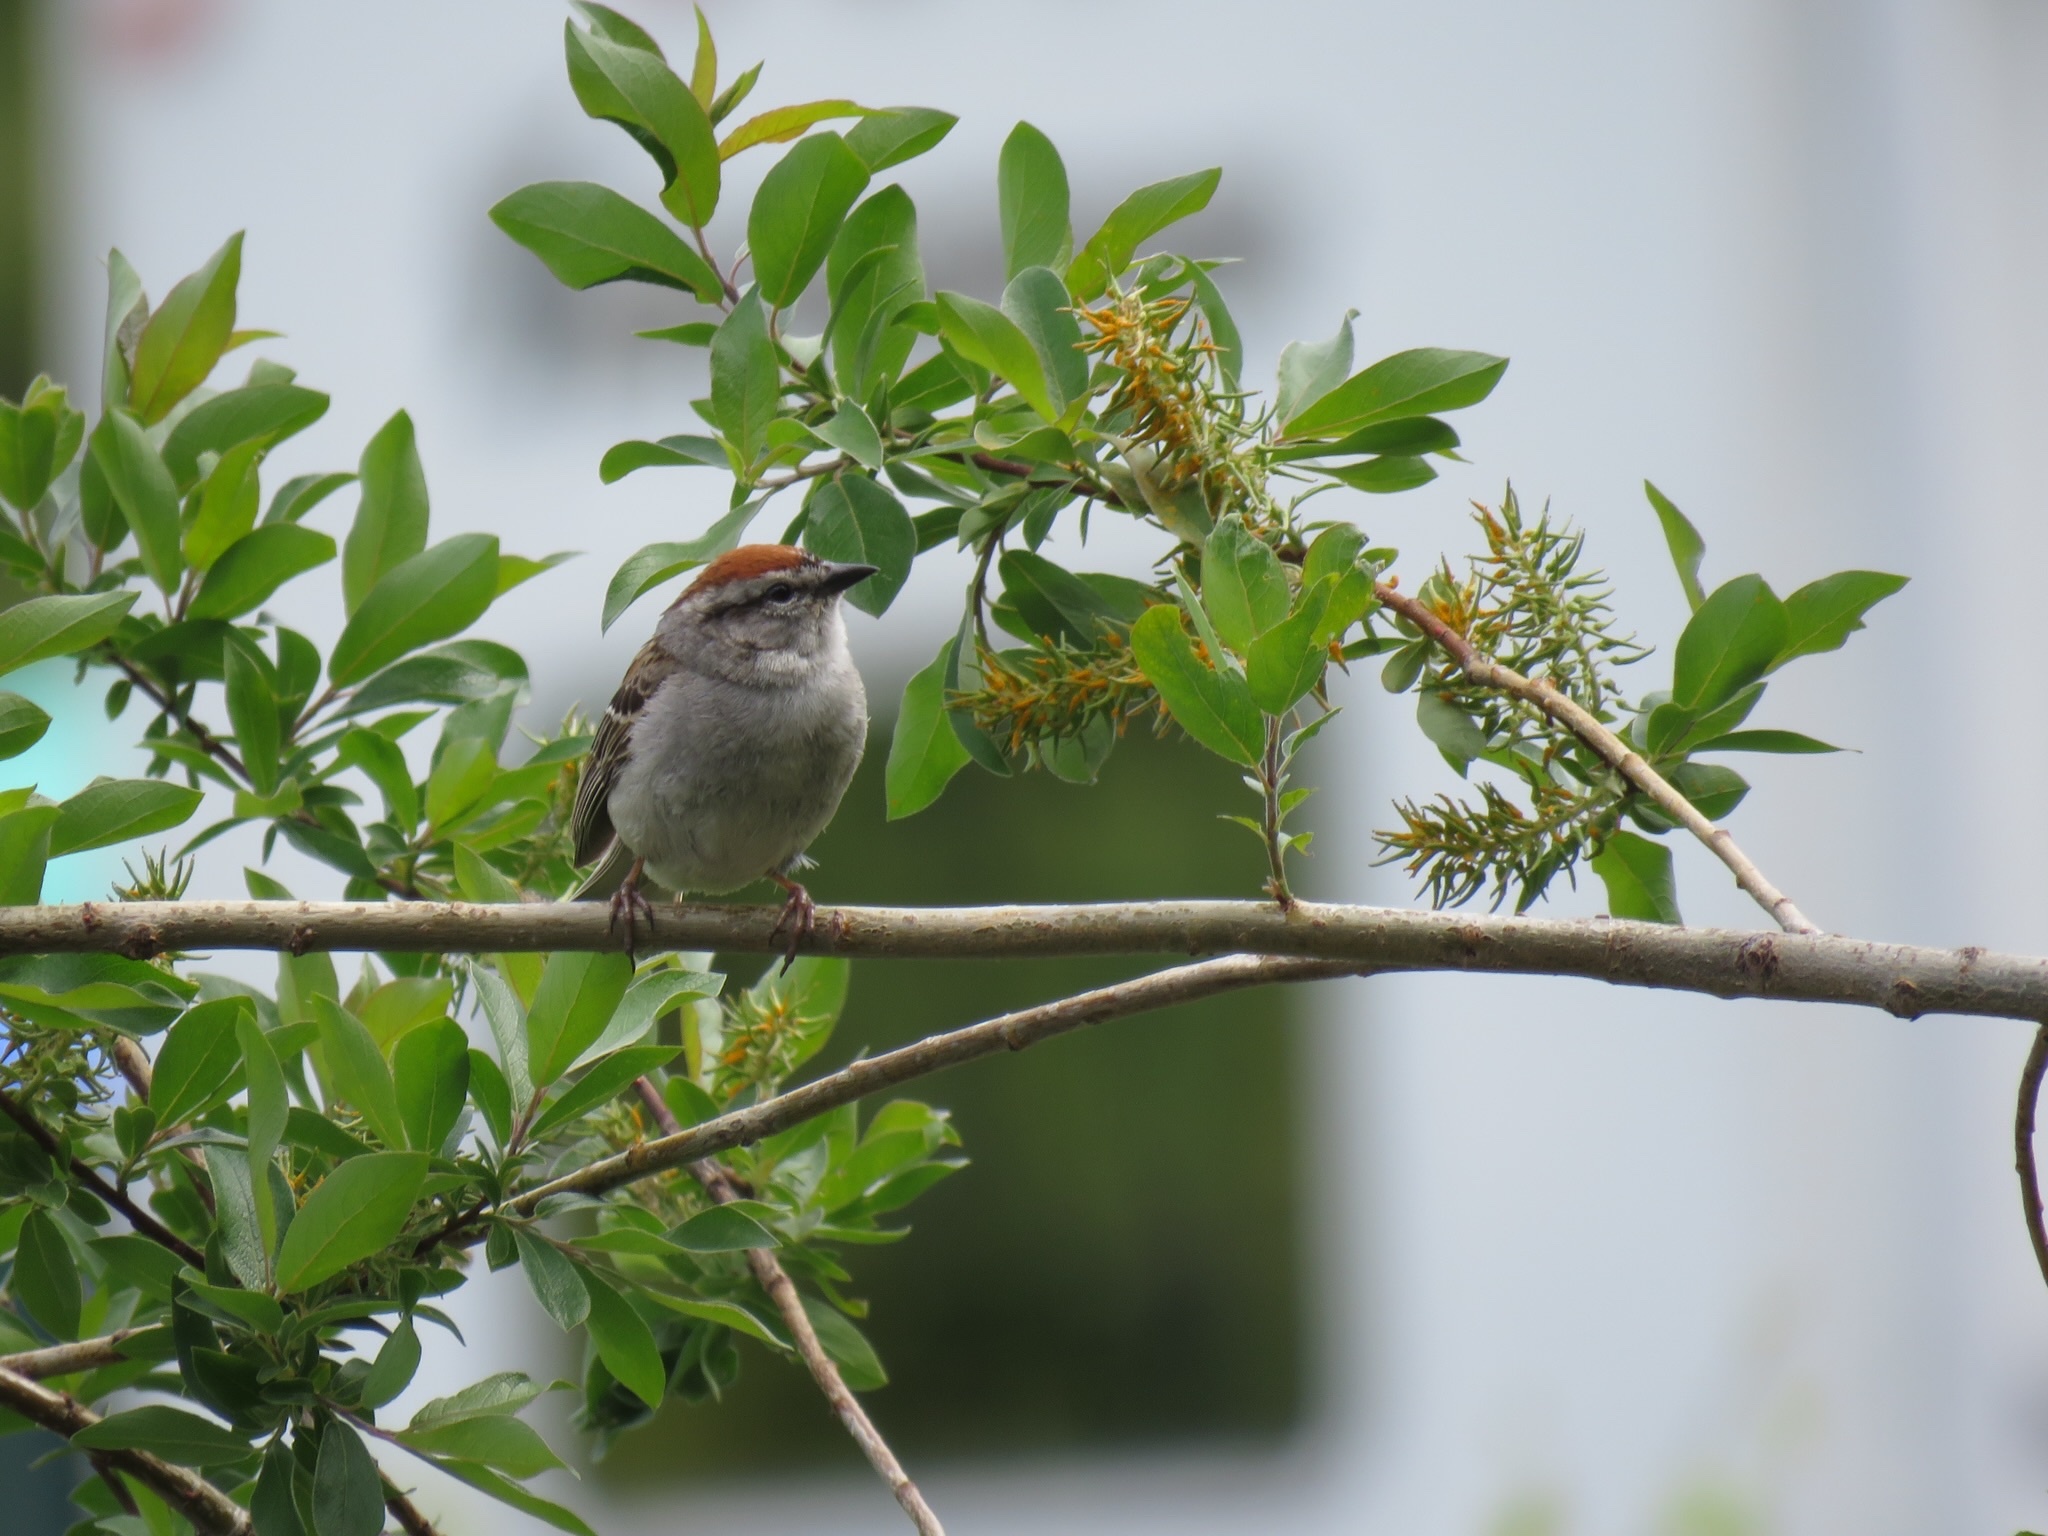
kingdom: Animalia
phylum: Chordata
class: Aves
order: Passeriformes
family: Passerellidae
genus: Spizella
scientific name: Spizella passerina
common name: Chipping sparrow
